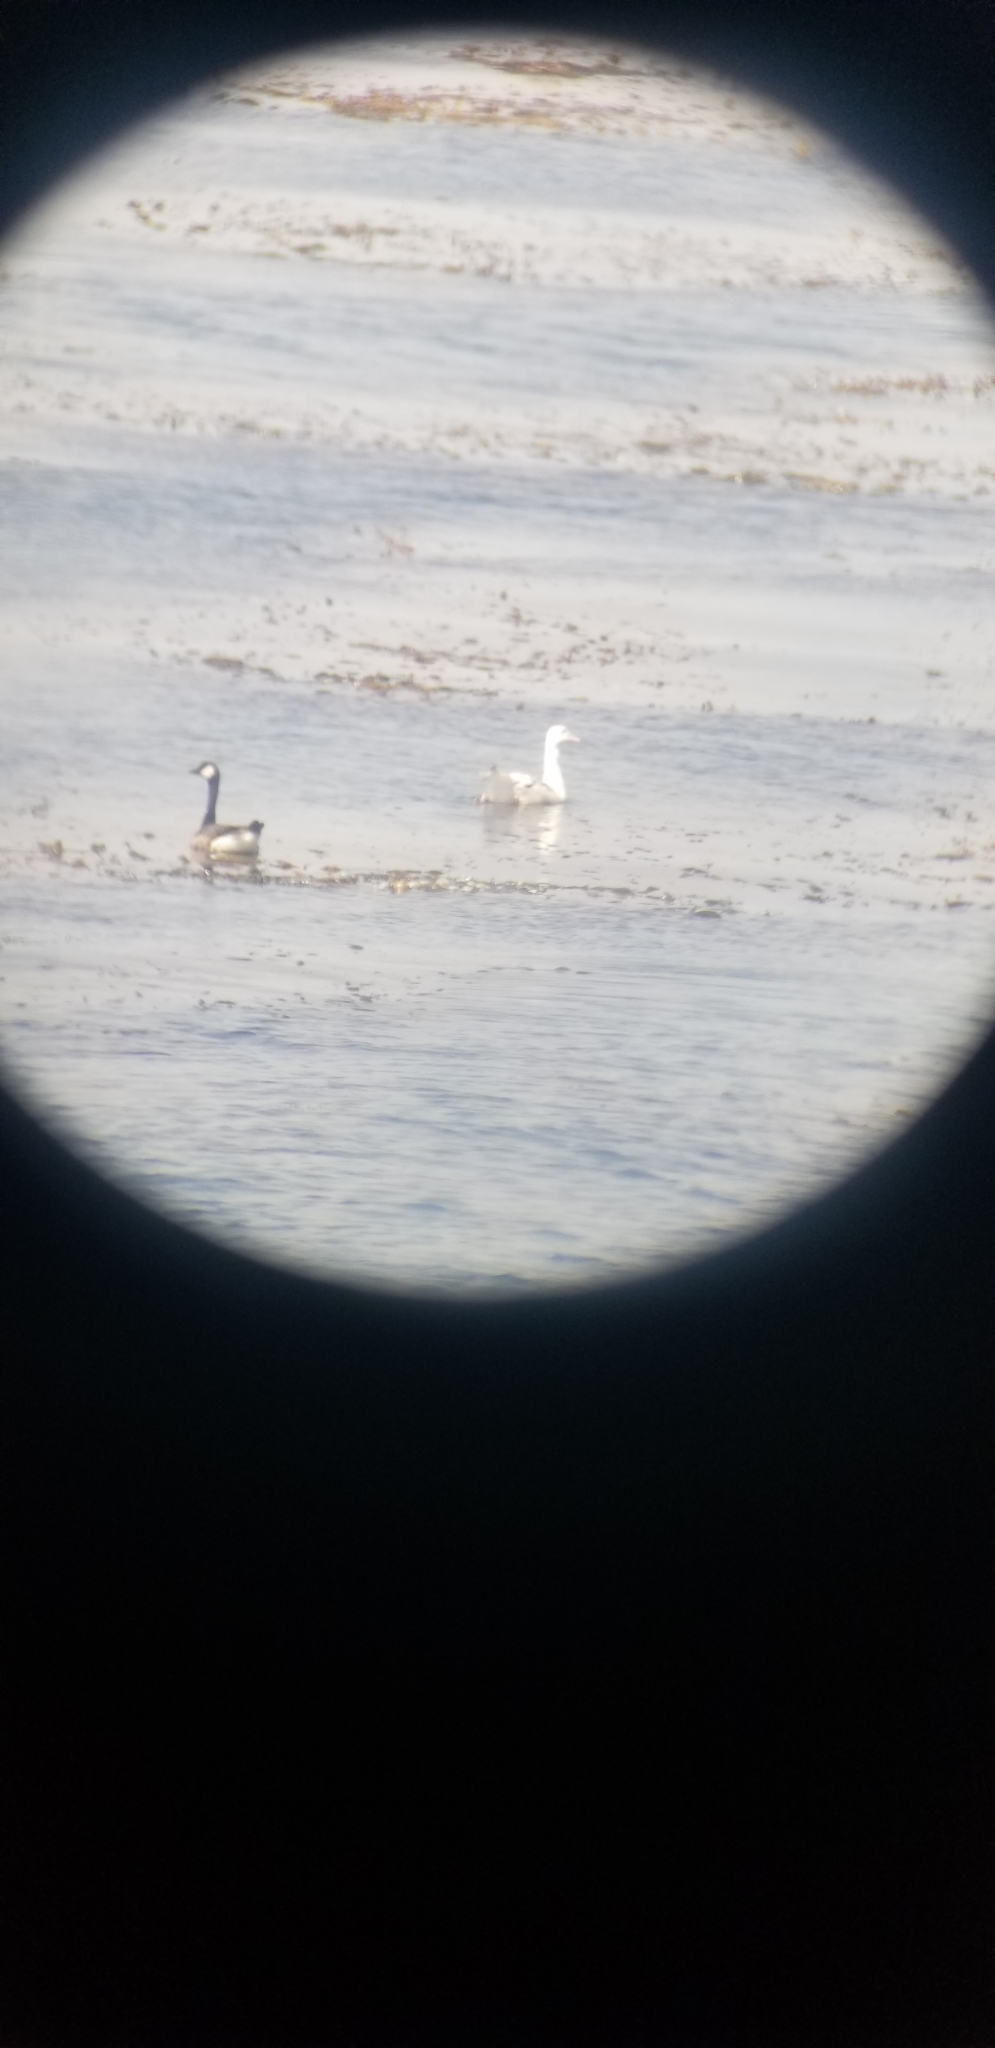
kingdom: Animalia
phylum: Chordata
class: Aves
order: Anseriformes
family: Anatidae
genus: Branta
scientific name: Branta canadensis
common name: Canada goose
